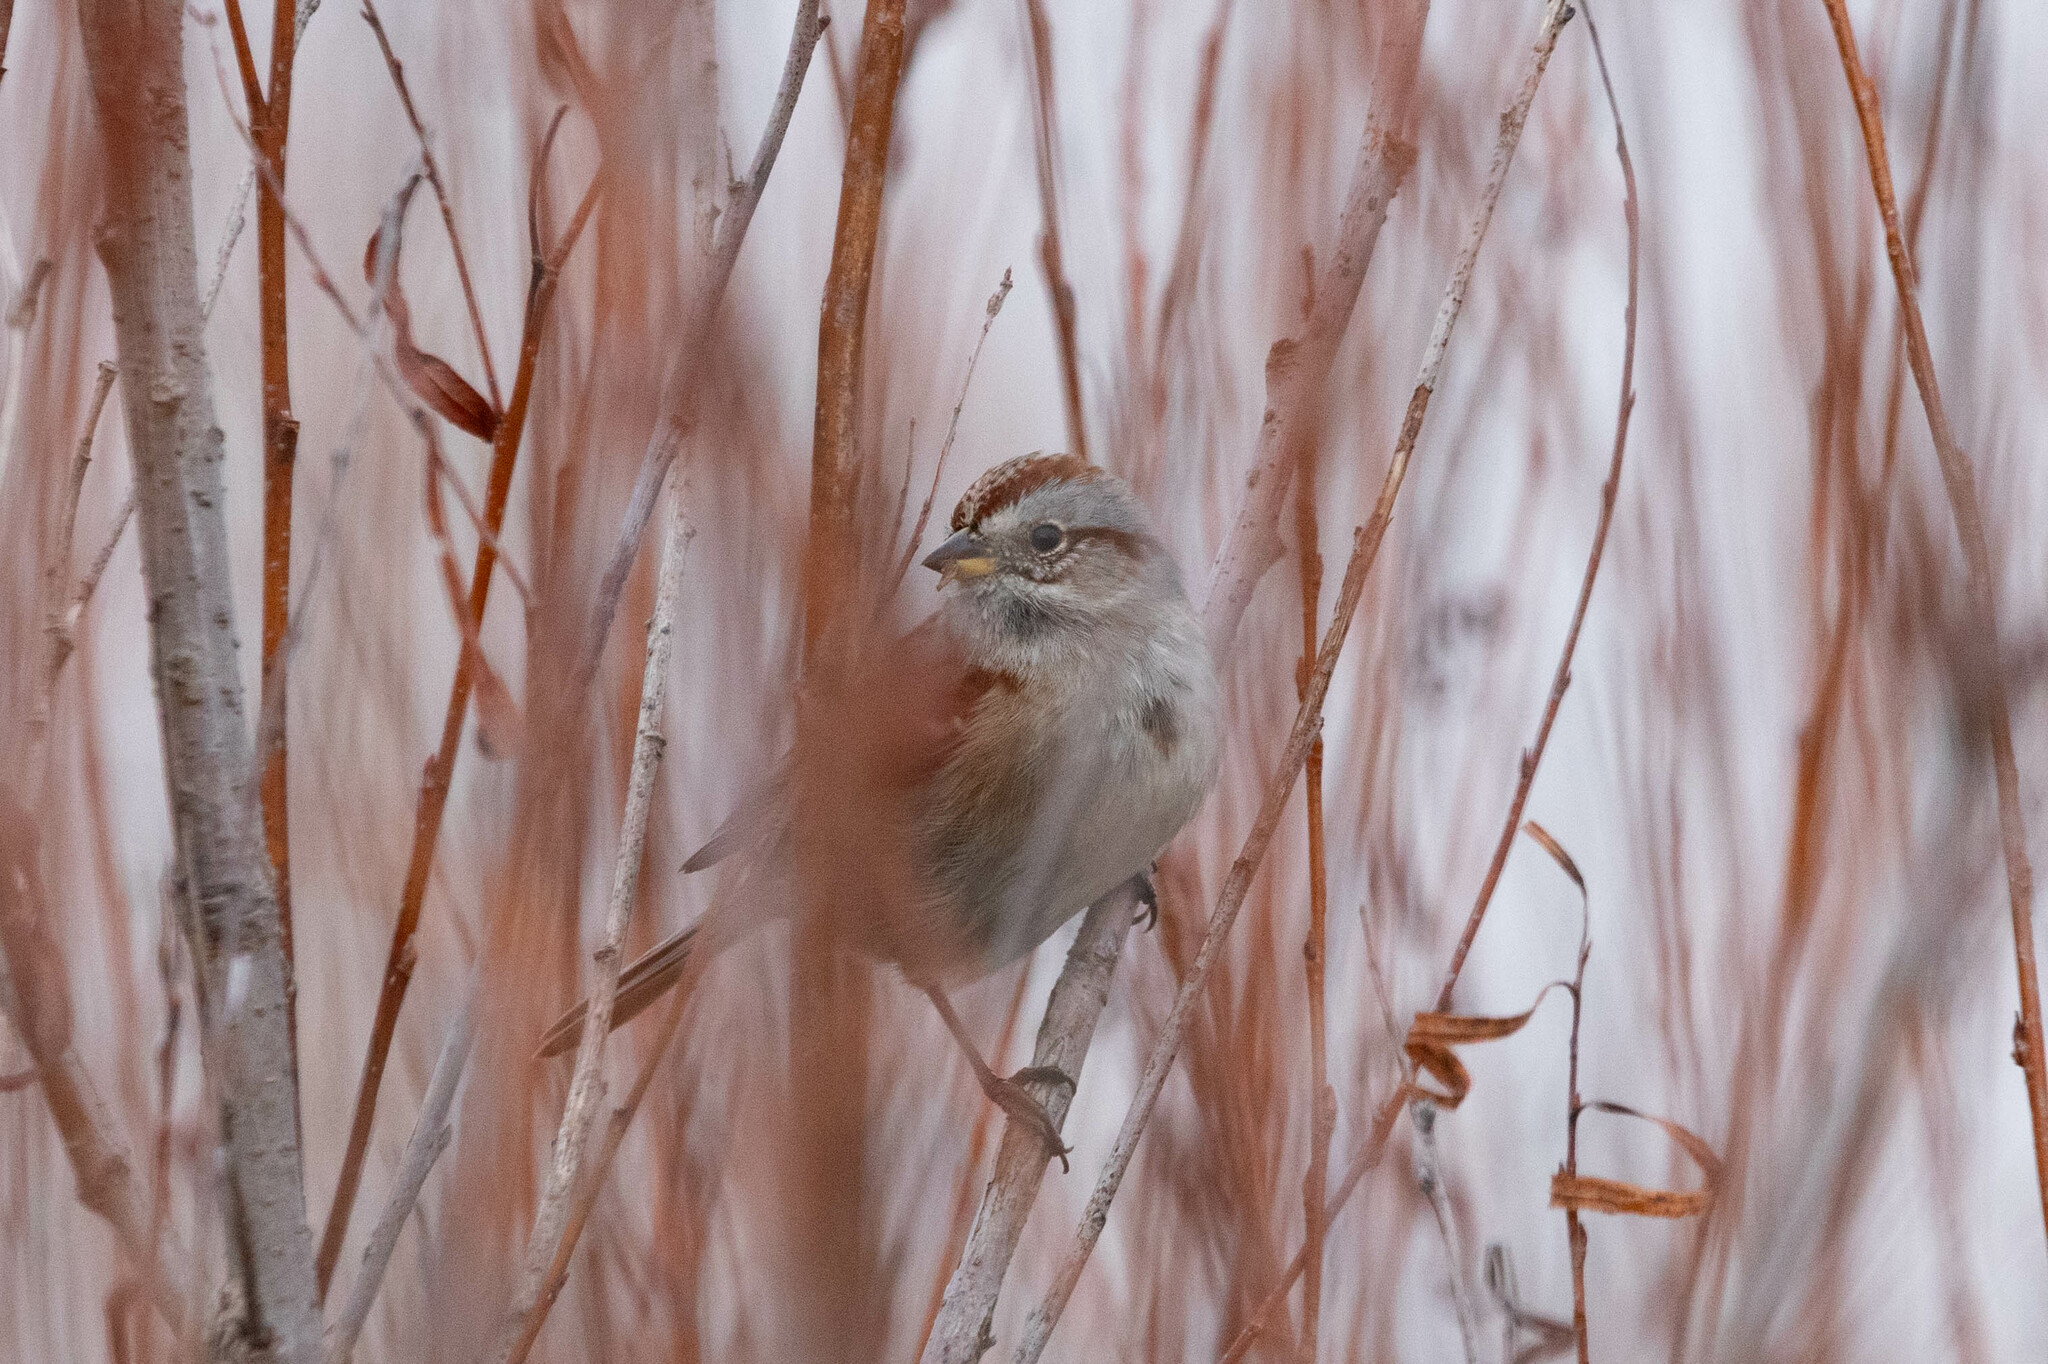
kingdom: Animalia
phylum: Chordata
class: Aves
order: Passeriformes
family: Passerellidae
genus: Spizelloides
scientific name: Spizelloides arborea
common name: American tree sparrow
